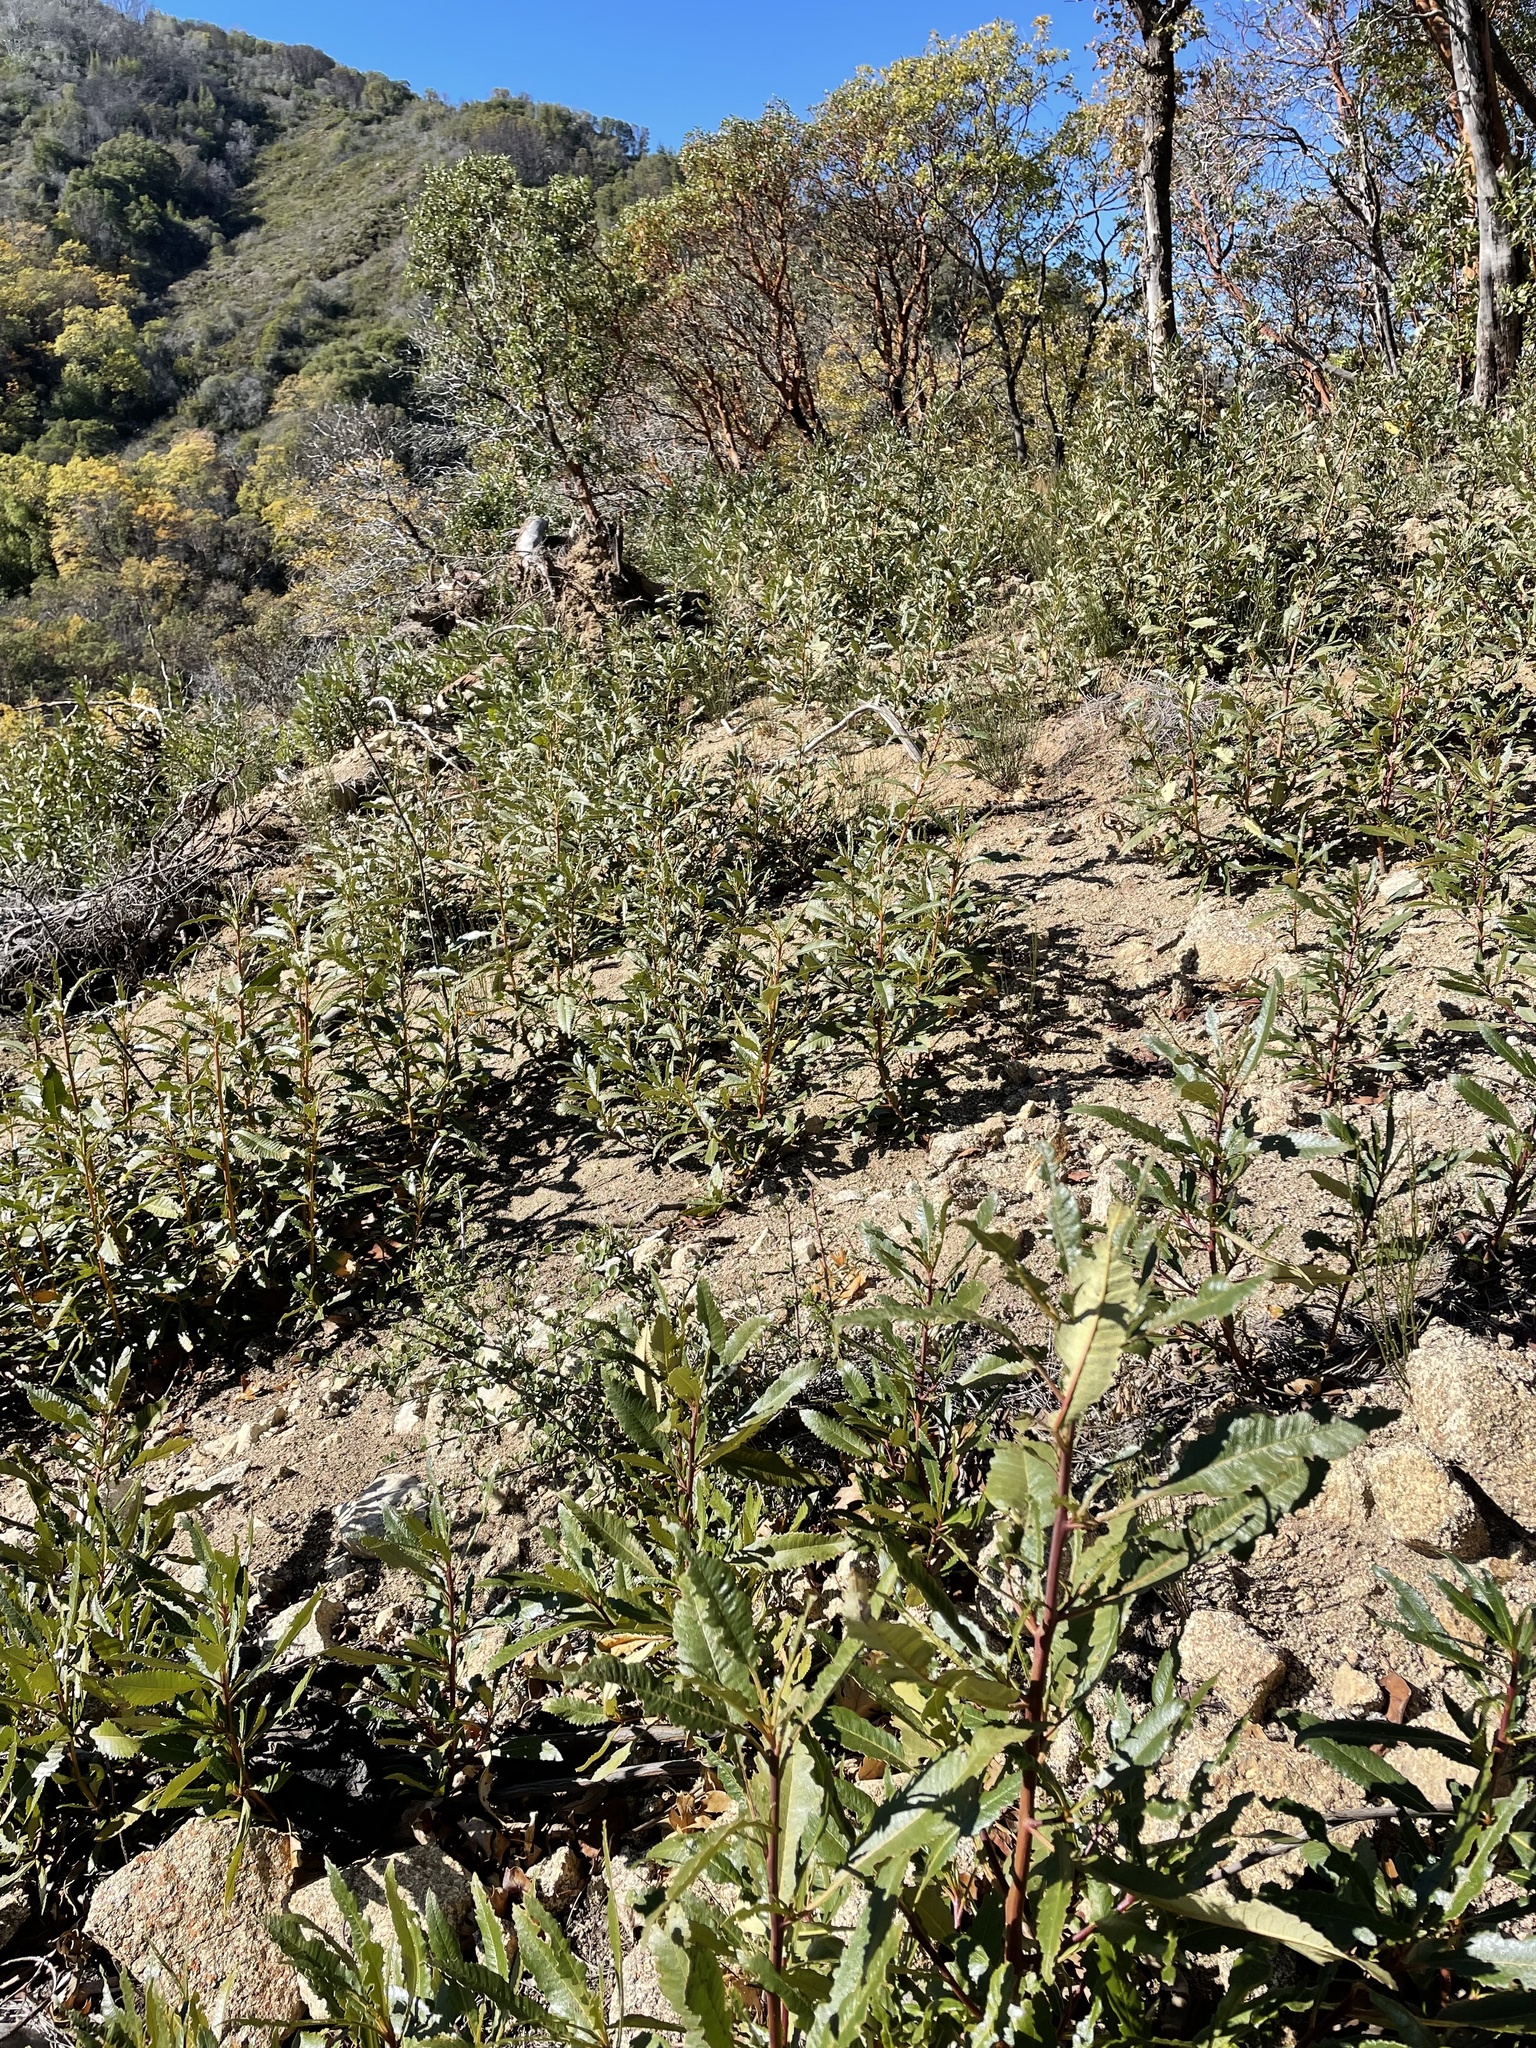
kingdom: Plantae
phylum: Tracheophyta
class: Magnoliopsida
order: Boraginales
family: Namaceae
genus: Eriodictyon
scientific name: Eriodictyon californicum
